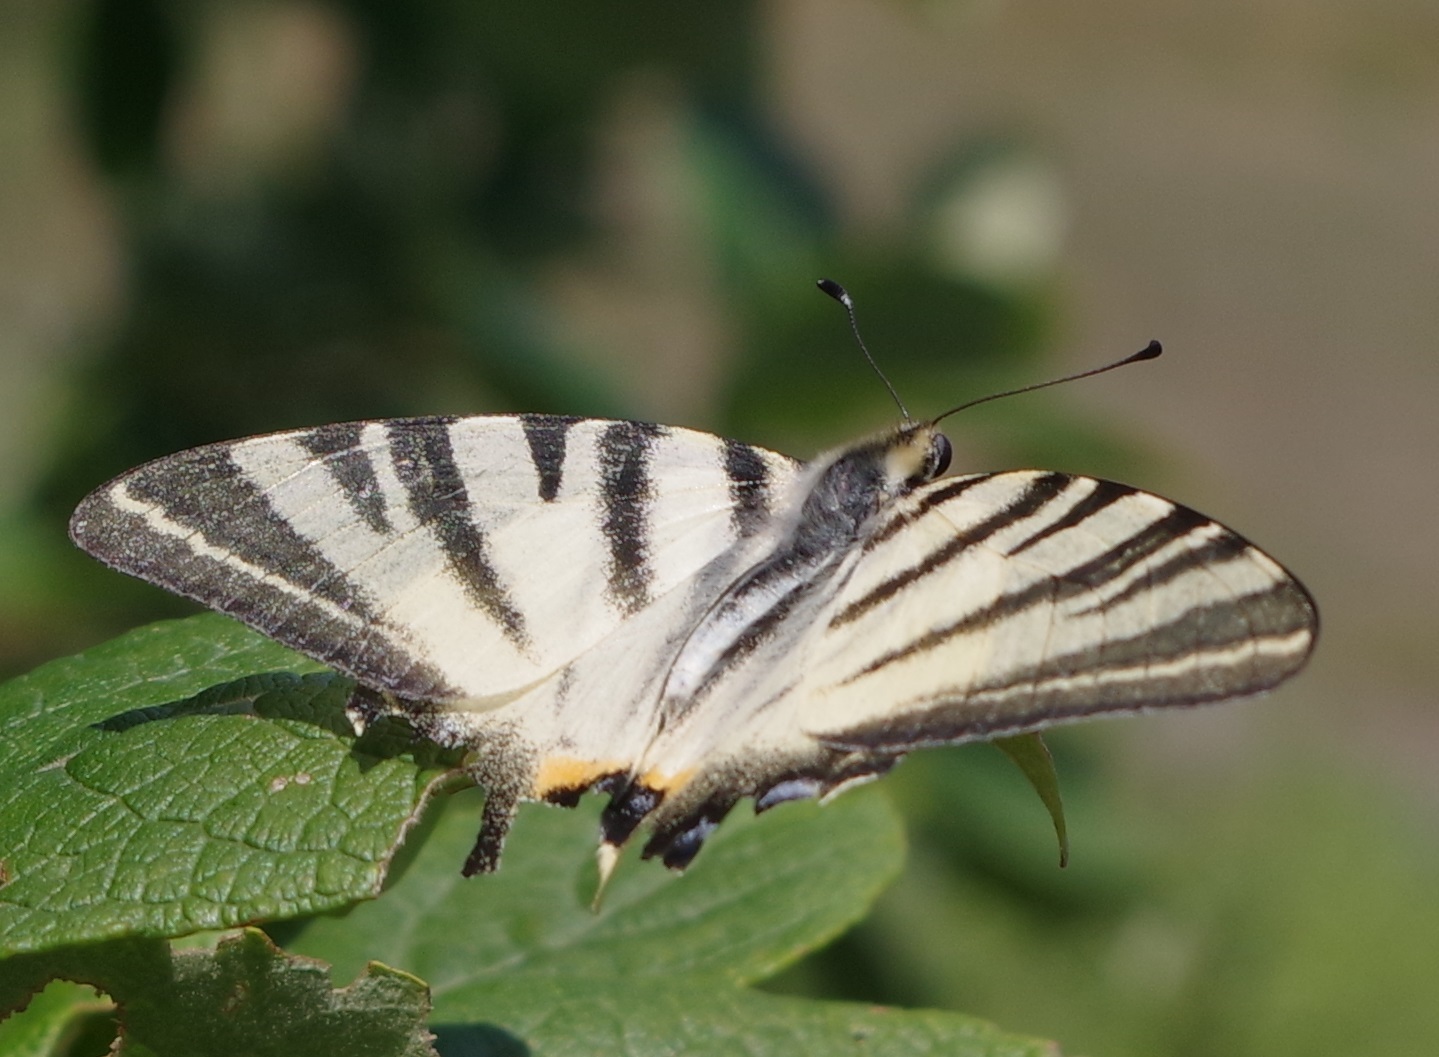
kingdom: Animalia
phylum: Arthropoda
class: Insecta
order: Lepidoptera
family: Papilionidae
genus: Iphiclides
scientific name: Iphiclides podalirius
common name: Scarce swallowtail
